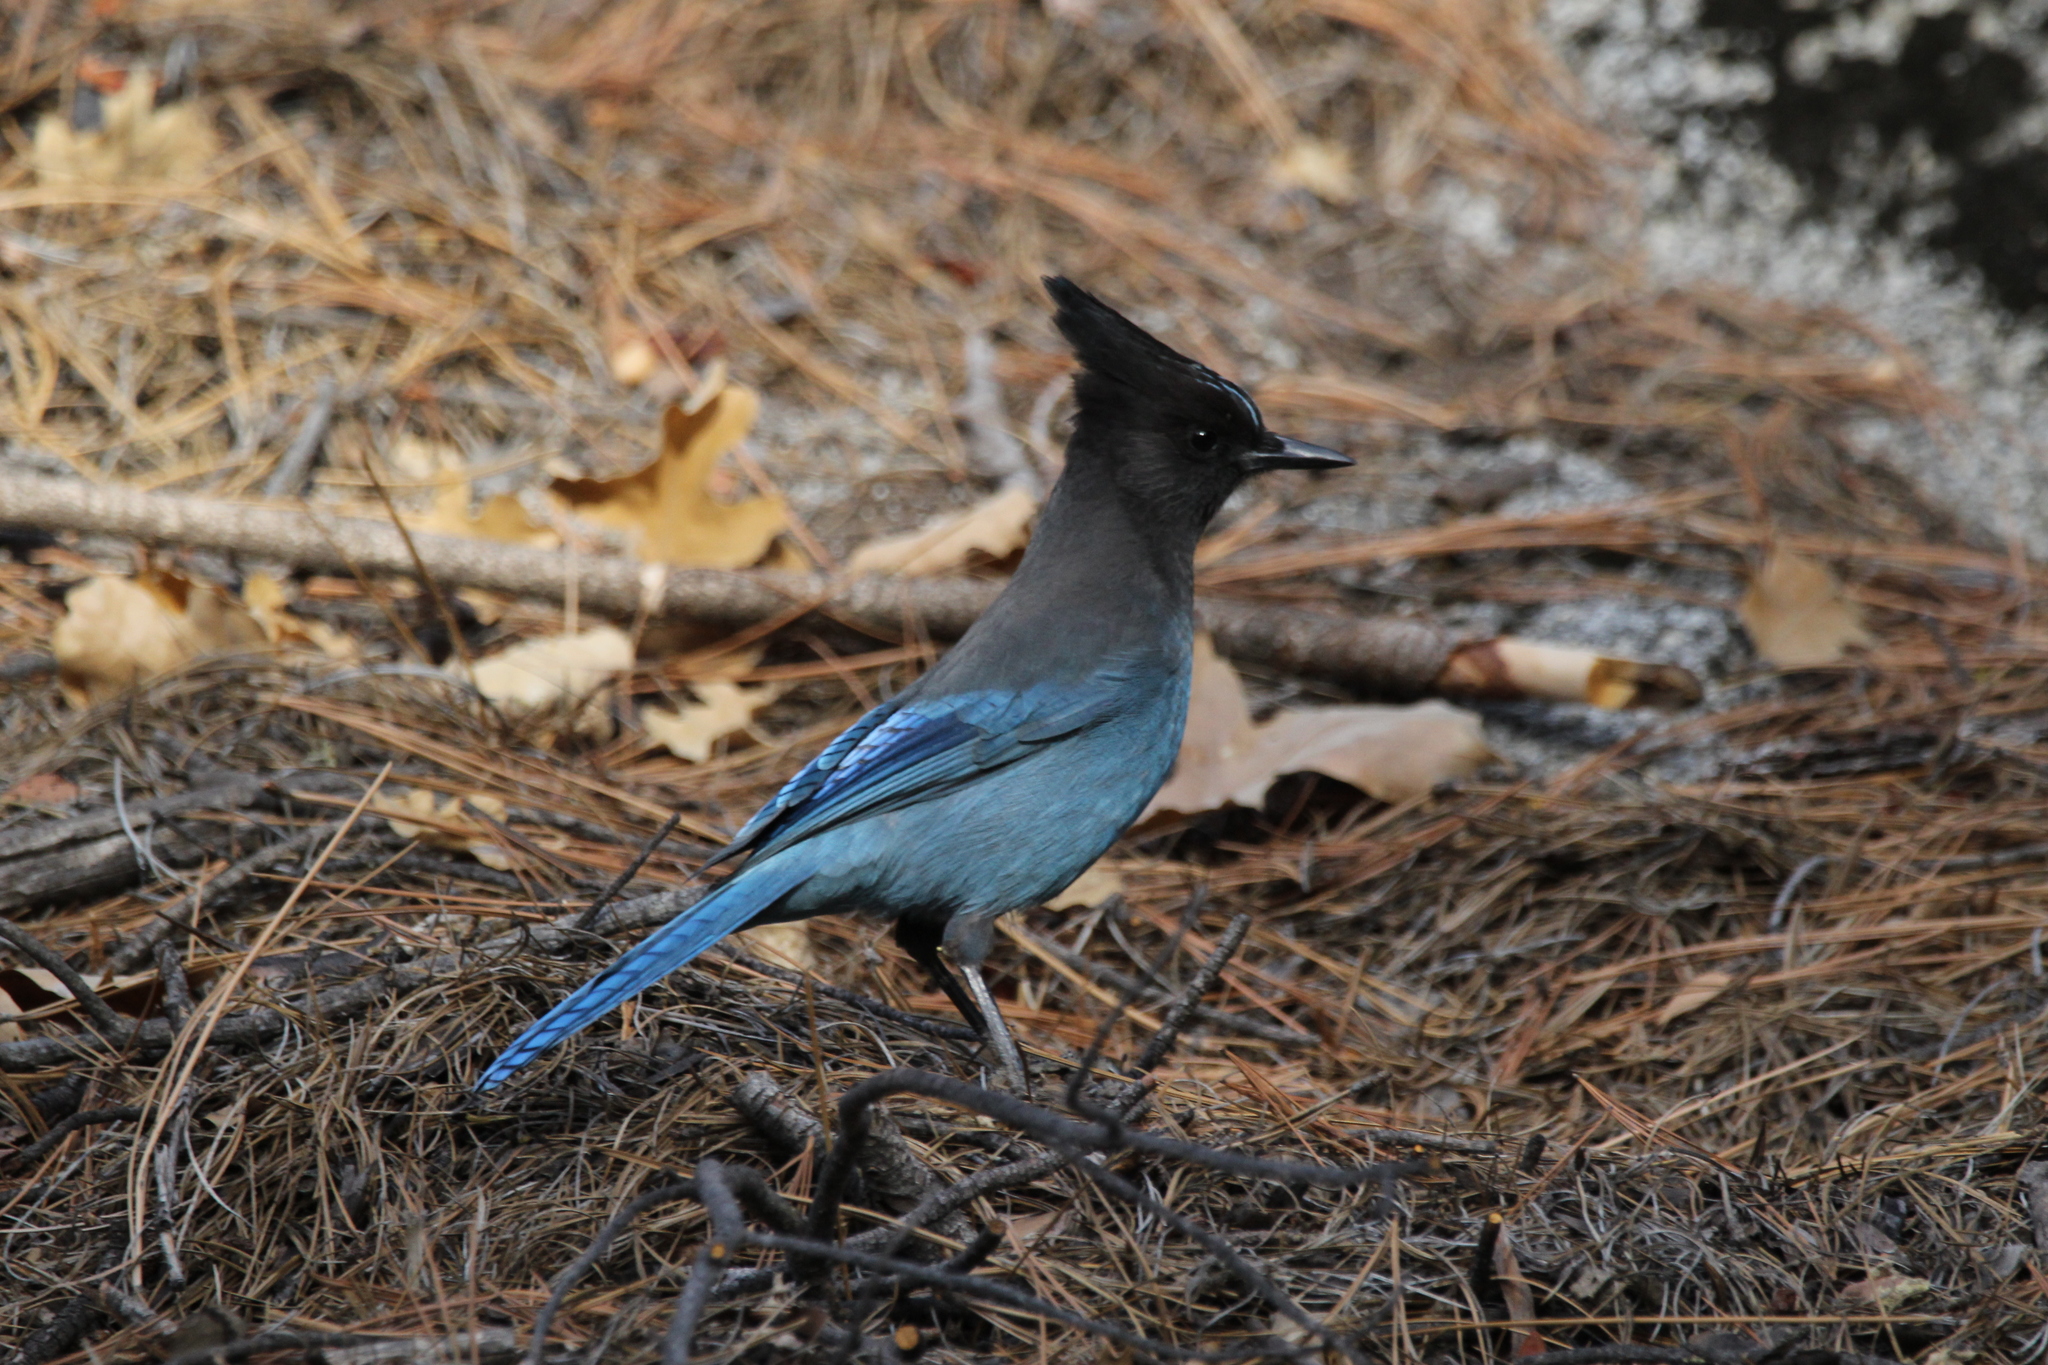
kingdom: Animalia
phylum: Chordata
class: Aves
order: Passeriformes
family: Corvidae
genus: Cyanocitta
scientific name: Cyanocitta stelleri
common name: Steller's jay
